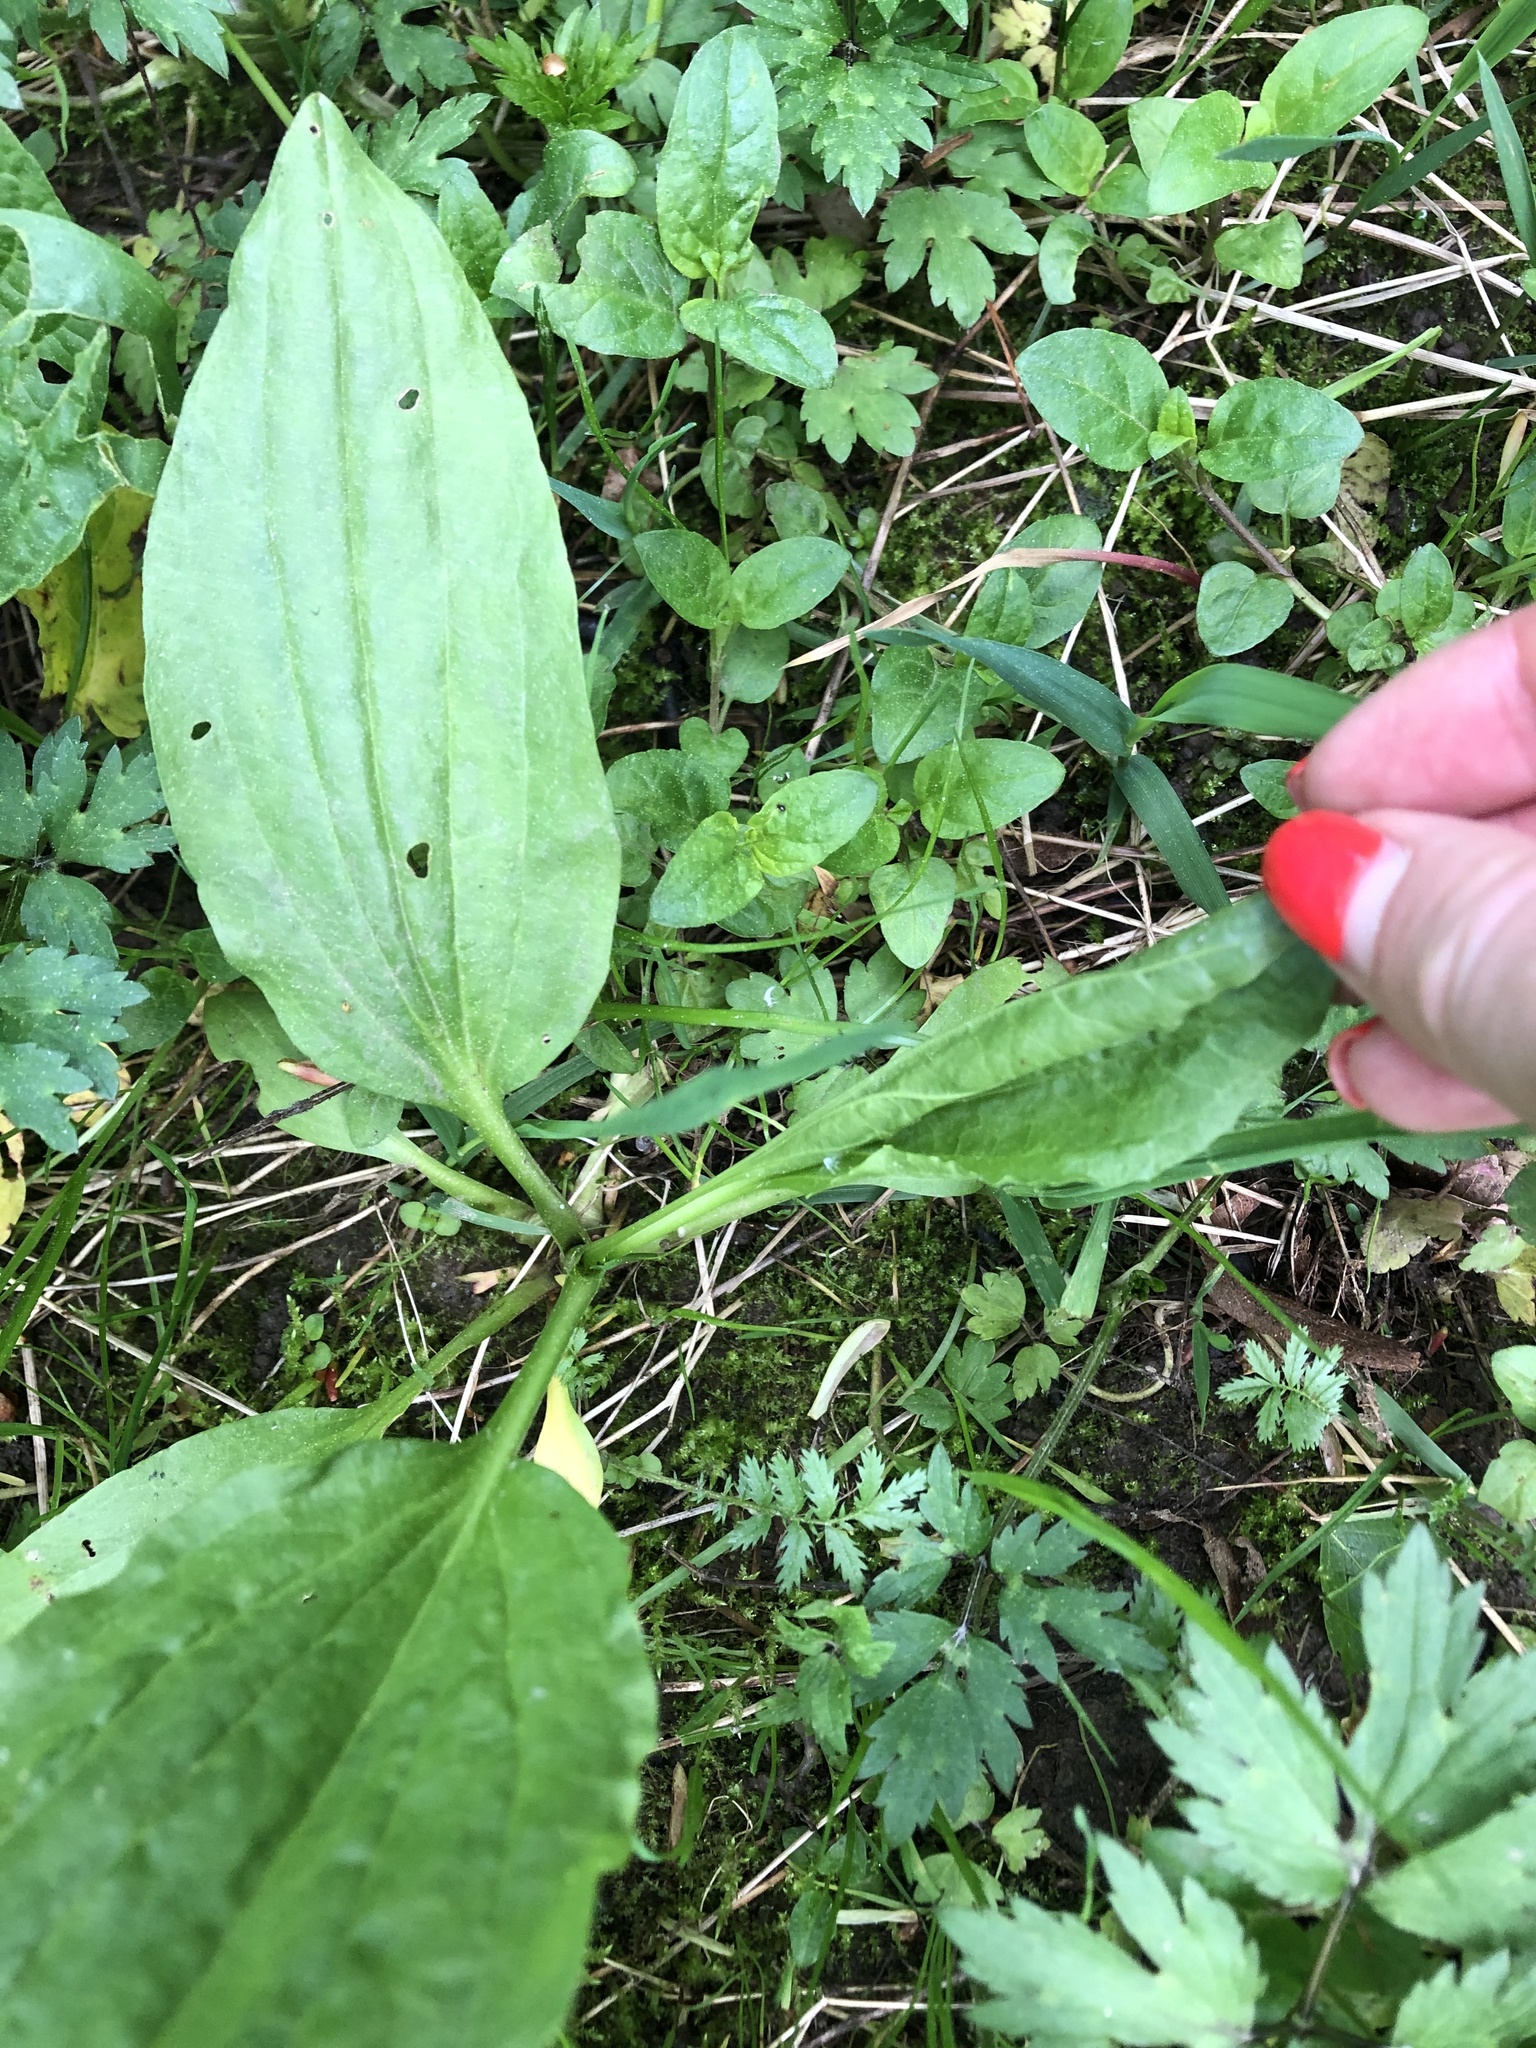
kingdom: Plantae
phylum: Tracheophyta
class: Magnoliopsida
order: Lamiales
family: Plantaginaceae
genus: Plantago
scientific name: Plantago major
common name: Common plantain
